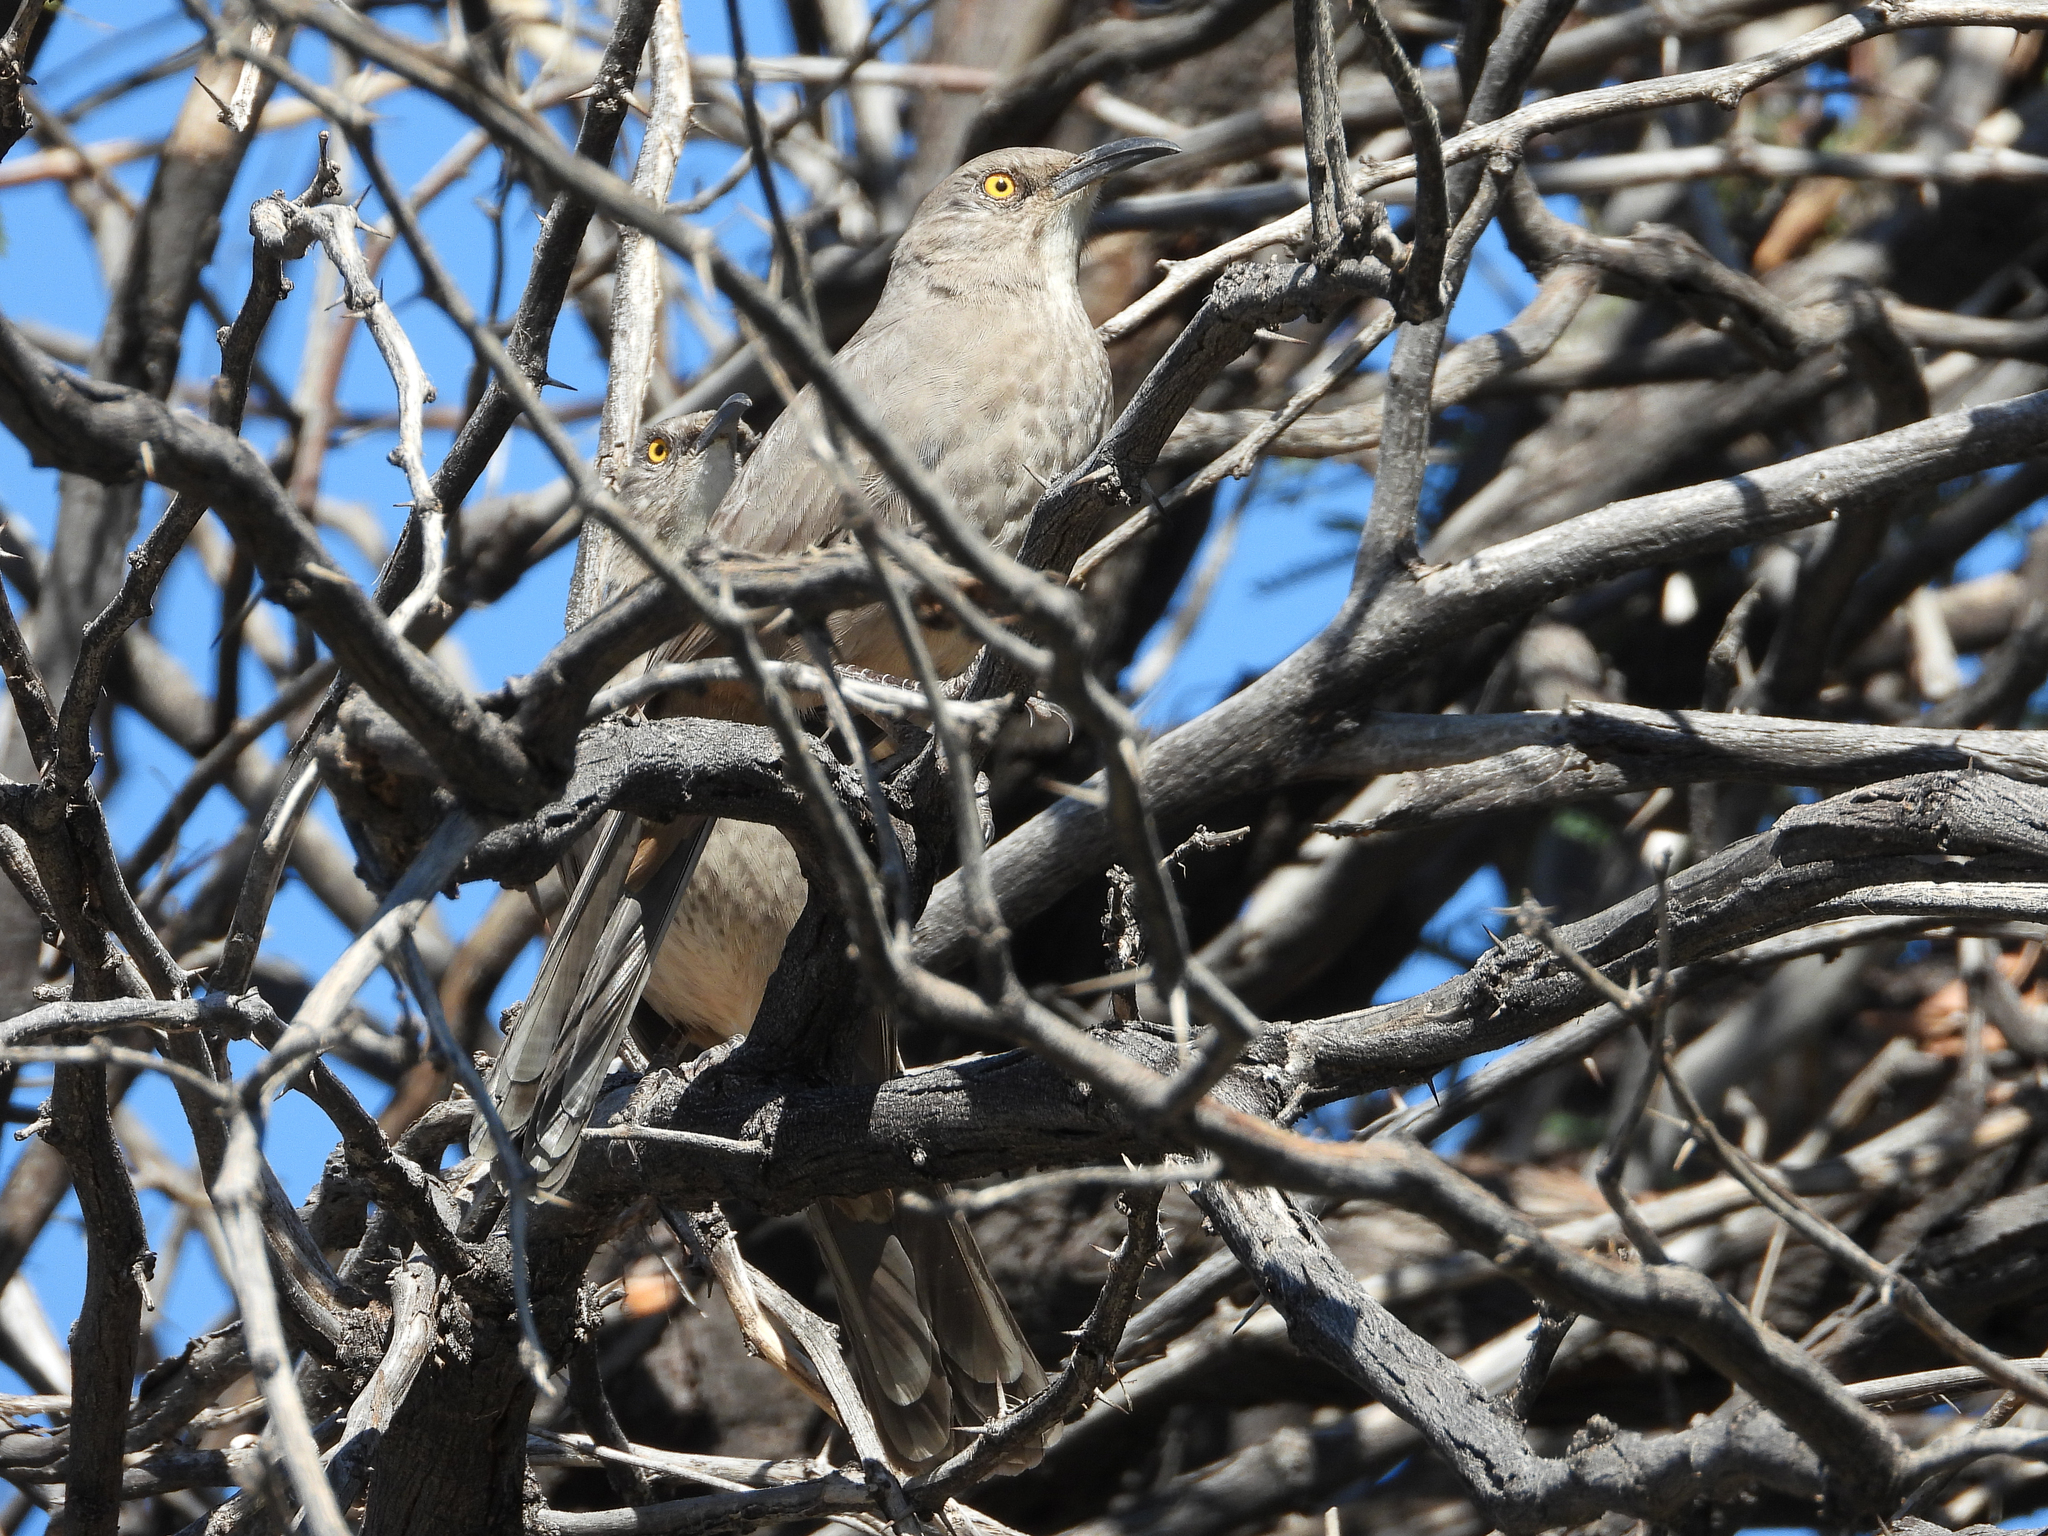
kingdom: Animalia
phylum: Chordata
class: Aves
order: Passeriformes
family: Mimidae
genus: Toxostoma
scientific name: Toxostoma curvirostre
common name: Curve-billed thrasher
